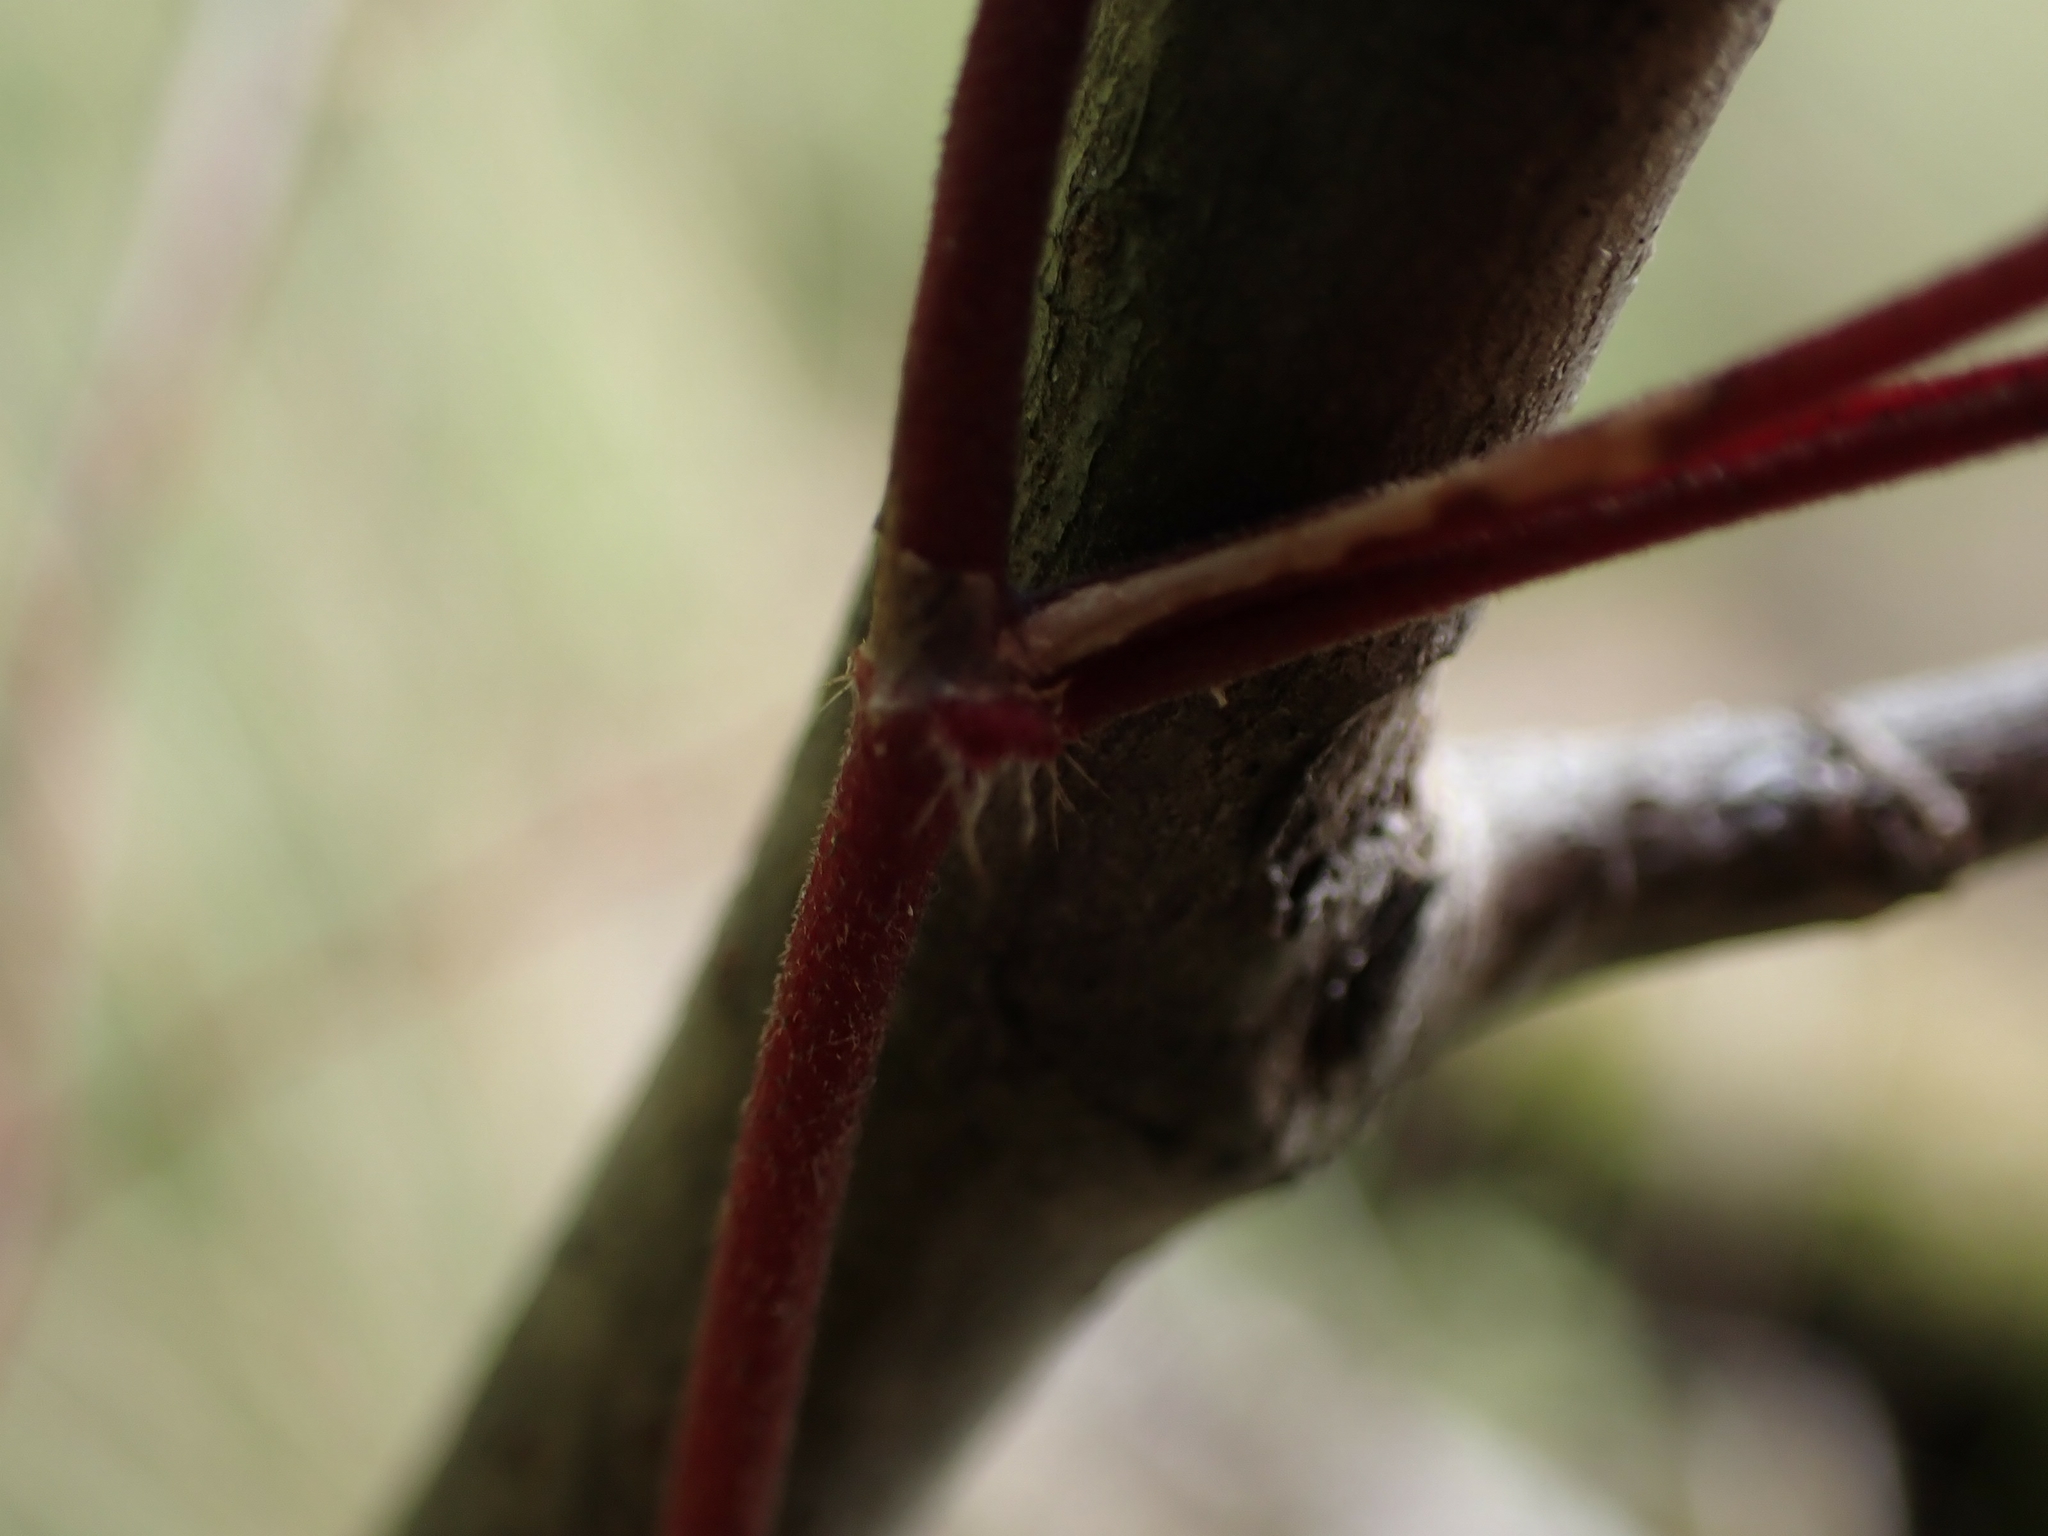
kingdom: Plantae
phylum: Tracheophyta
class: Magnoliopsida
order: Caryophyllales
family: Polygonaceae
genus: Parogonum
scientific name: Parogonum ciliinode
